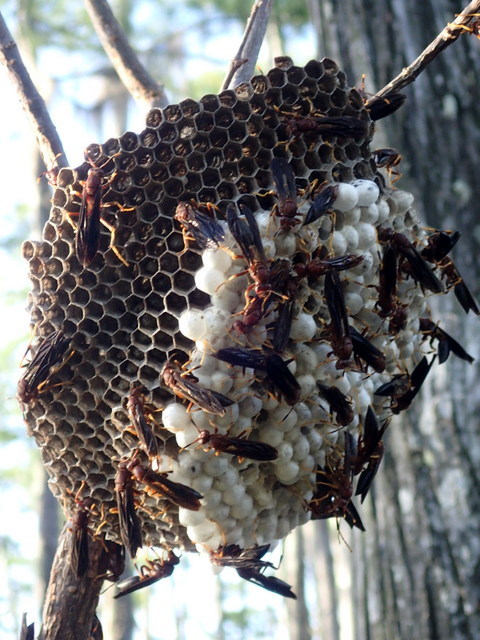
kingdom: Animalia
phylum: Arthropoda
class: Insecta
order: Hymenoptera
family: Eumenidae
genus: Polistes
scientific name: Polistes annularis
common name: Ringed paper wasp
